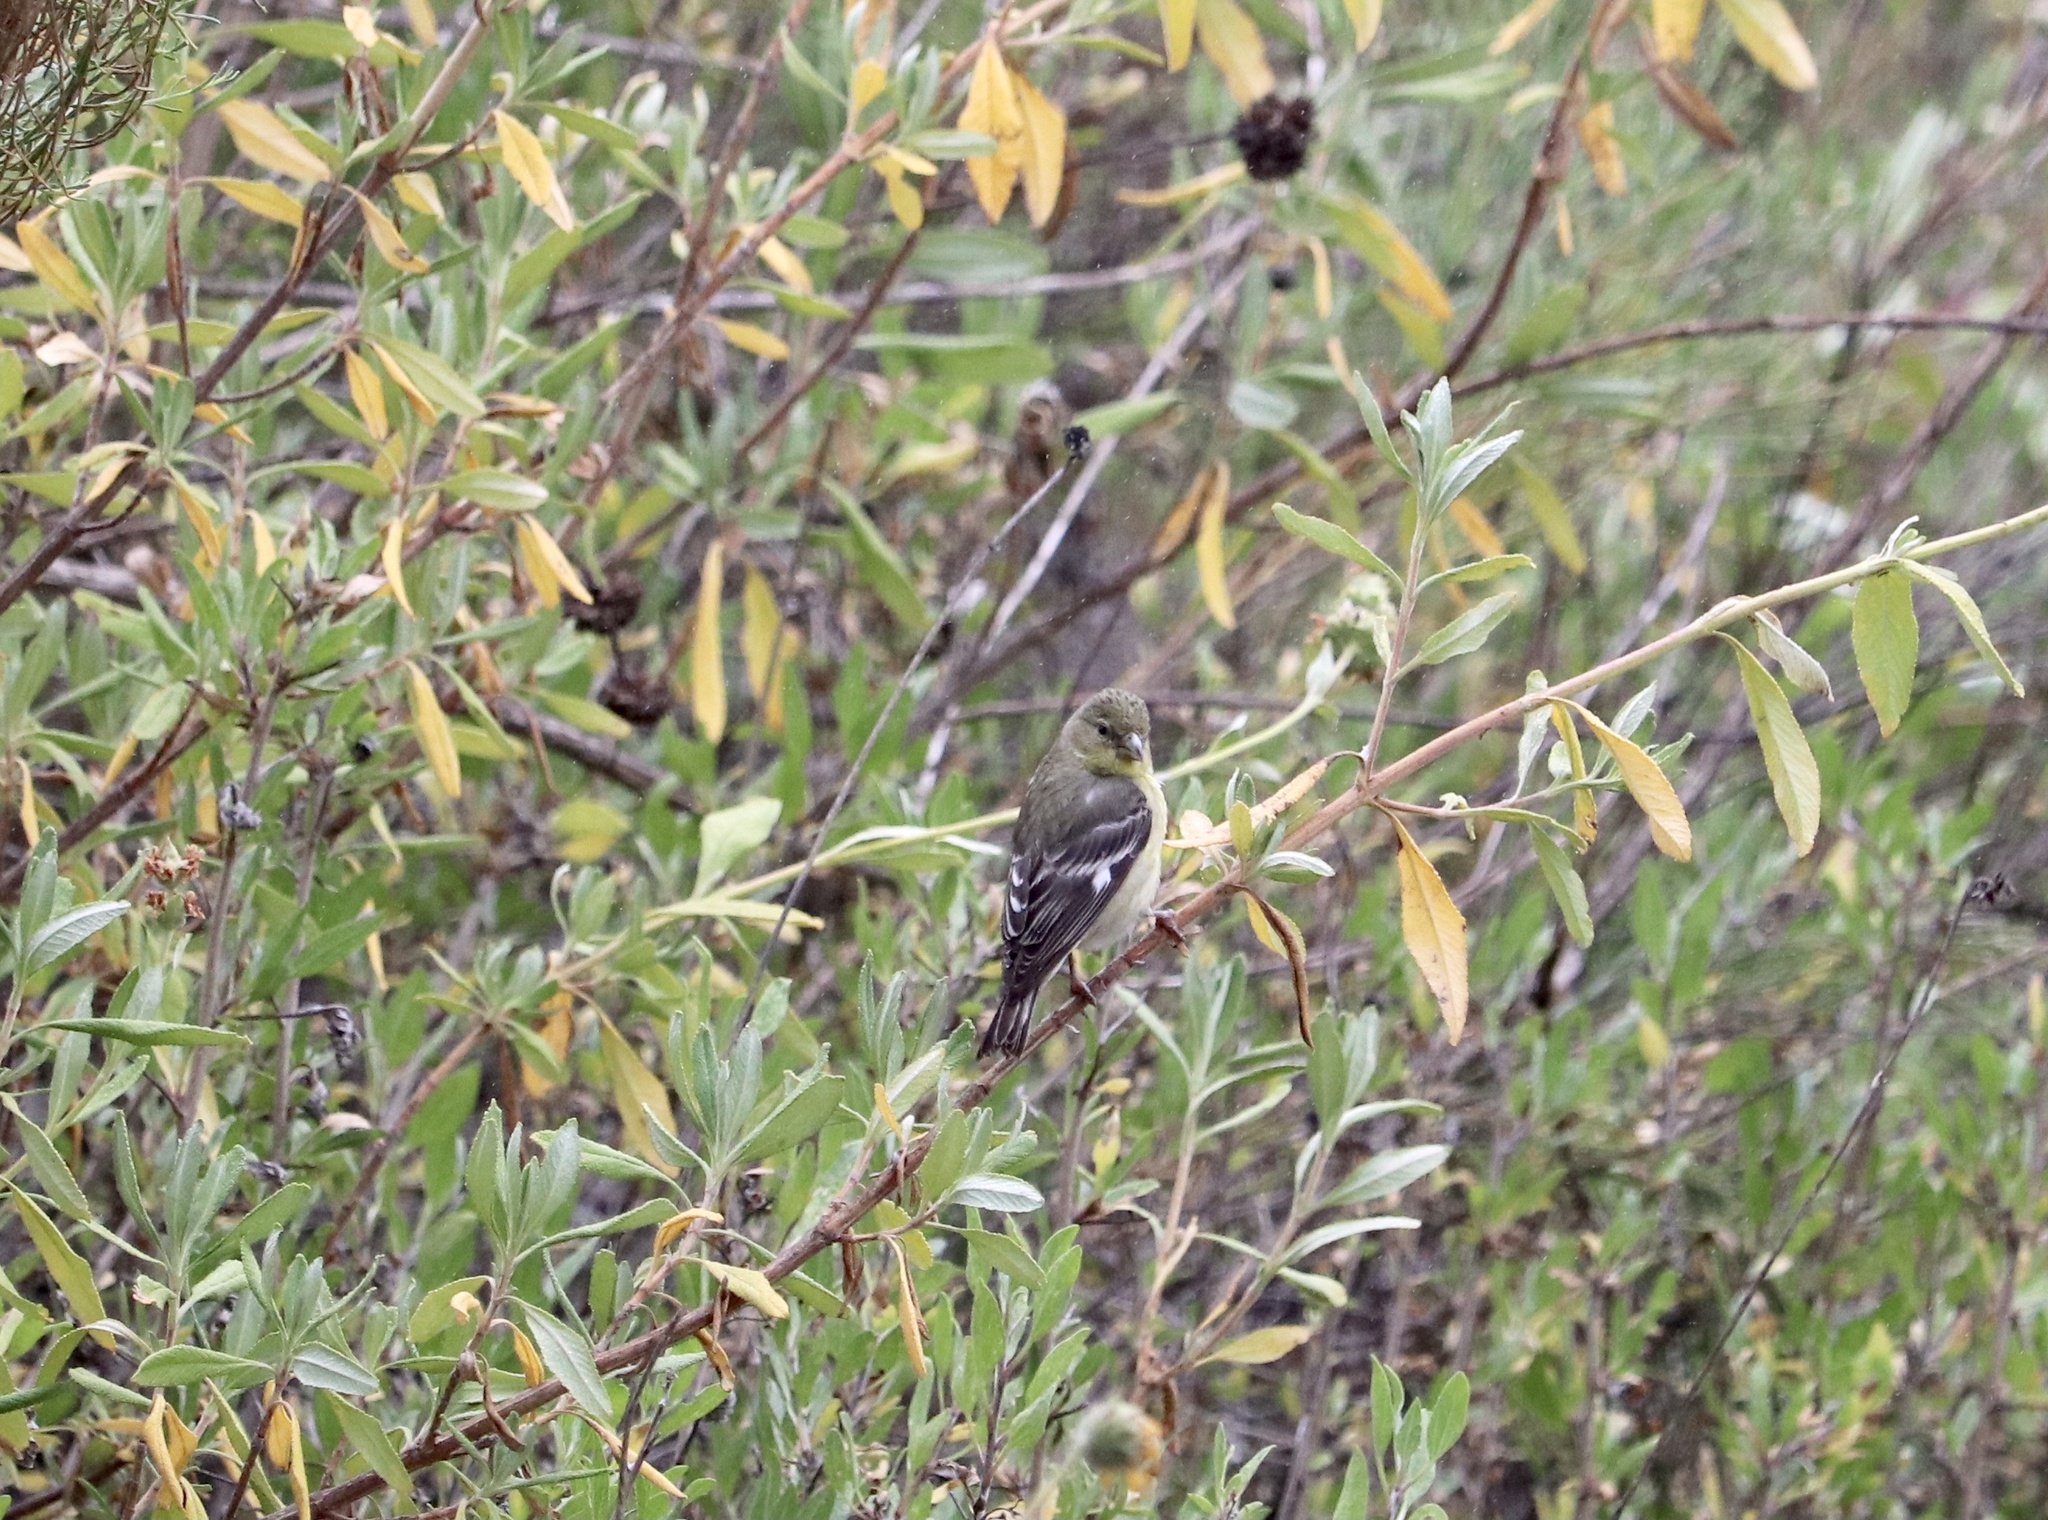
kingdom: Animalia
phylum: Chordata
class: Aves
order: Passeriformes
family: Fringillidae
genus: Spinus
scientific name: Spinus psaltria
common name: Lesser goldfinch
